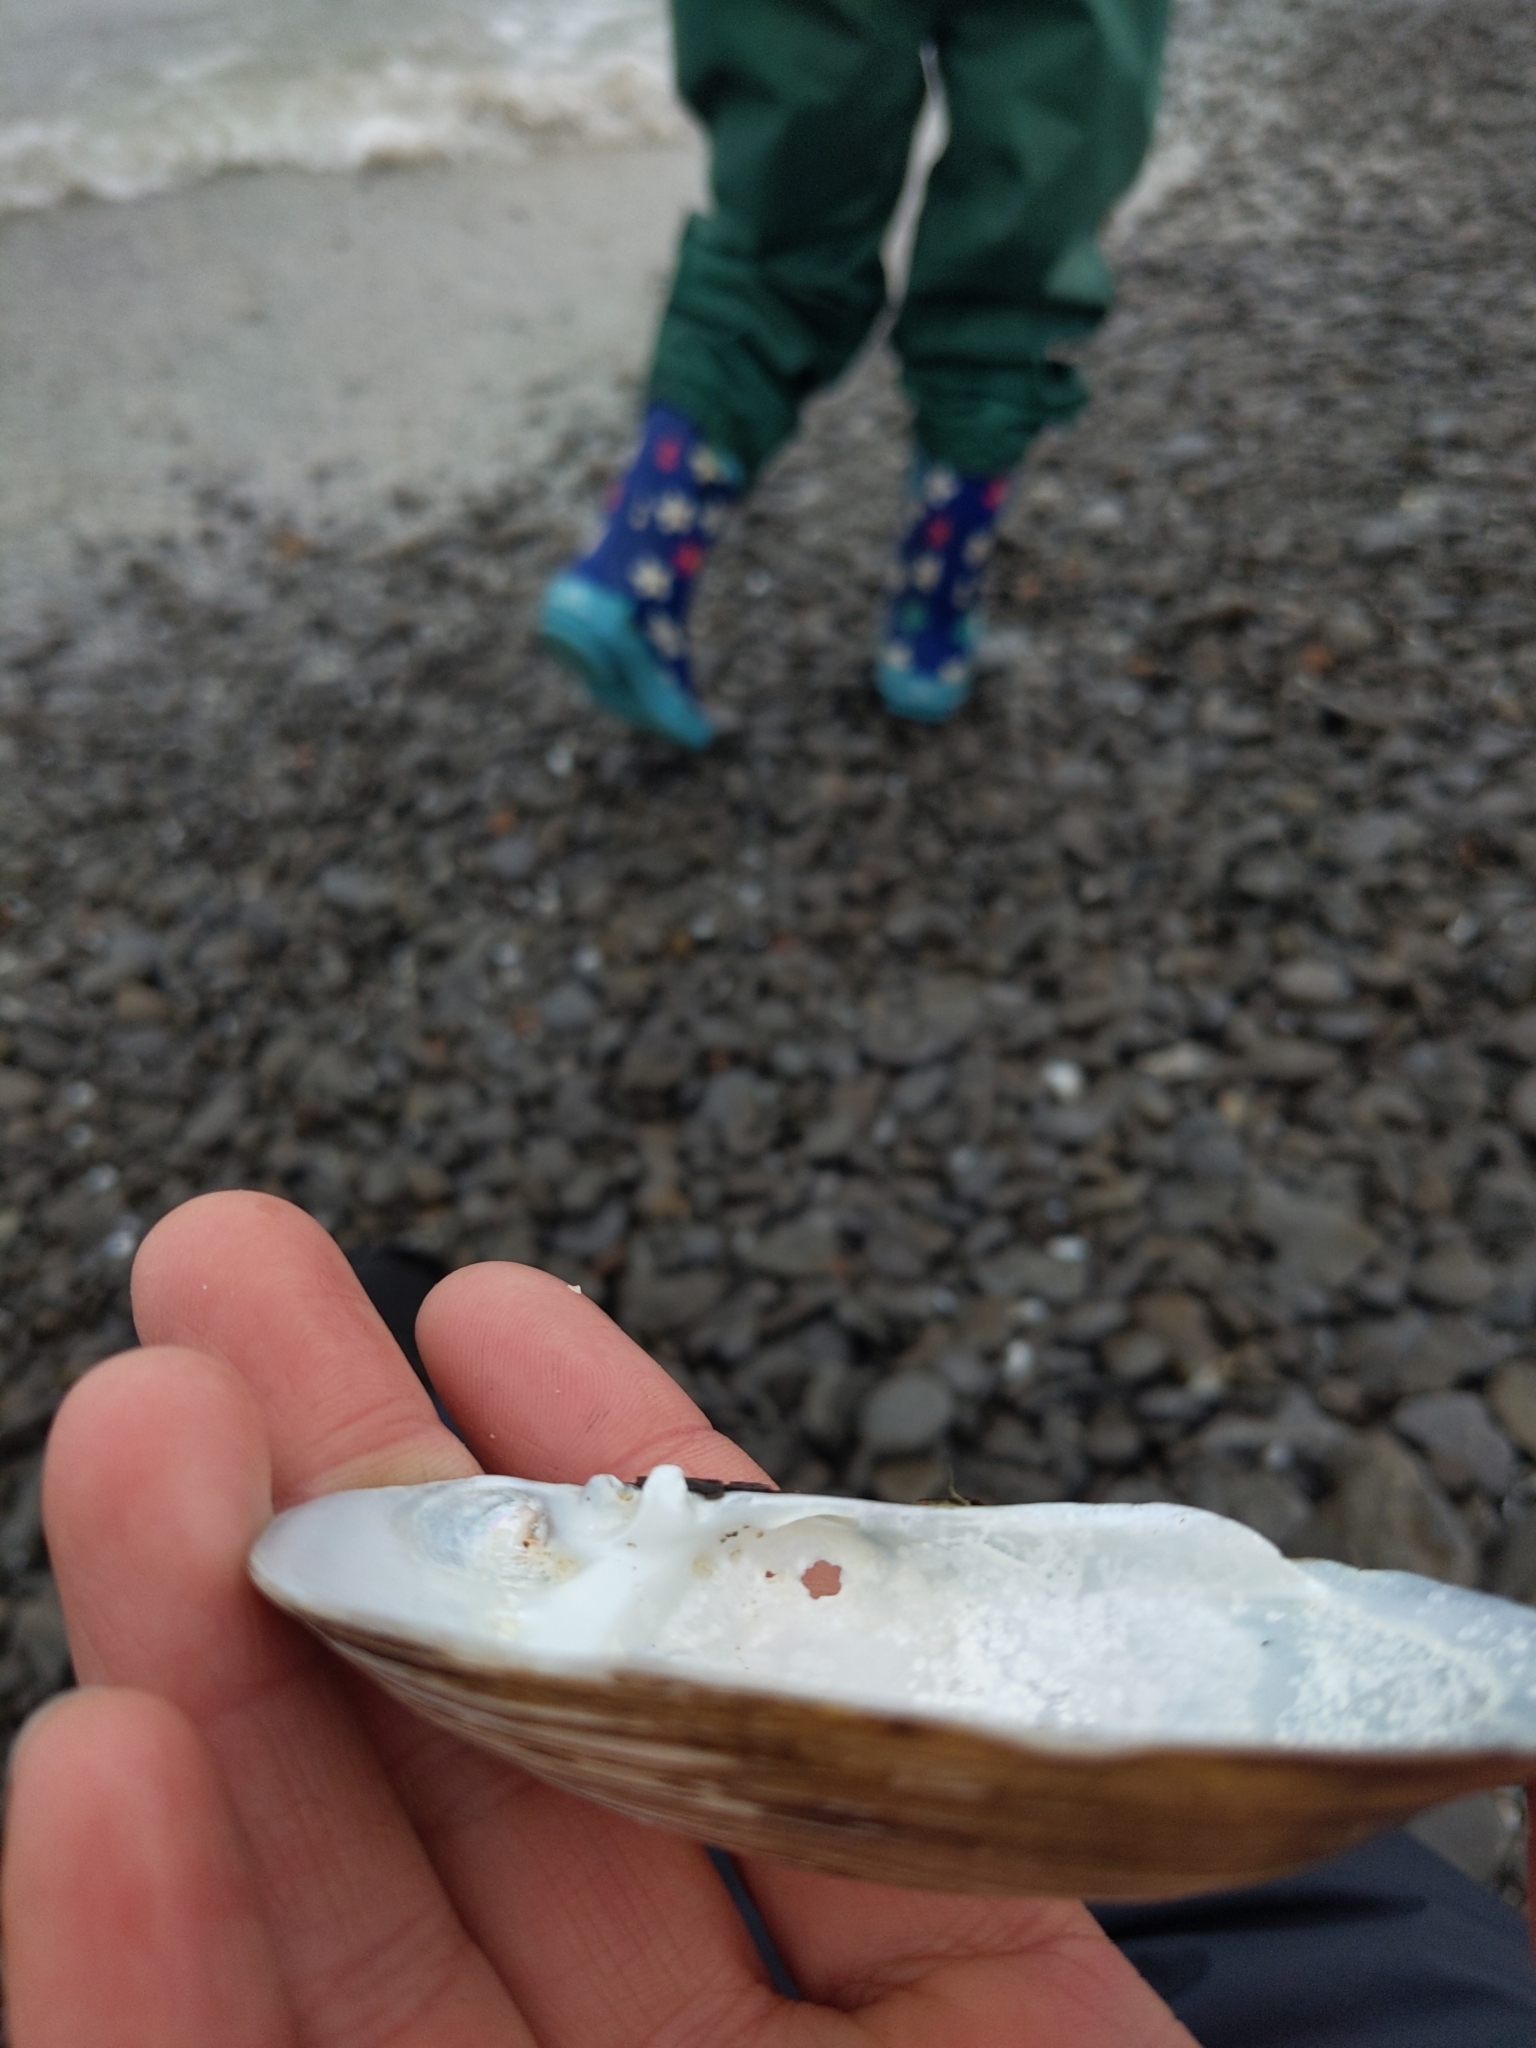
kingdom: Animalia
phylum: Mollusca
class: Bivalvia
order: Unionida
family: Unionidae
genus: Lampsilis
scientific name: Lampsilis siliquoidea
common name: Fatmucket
